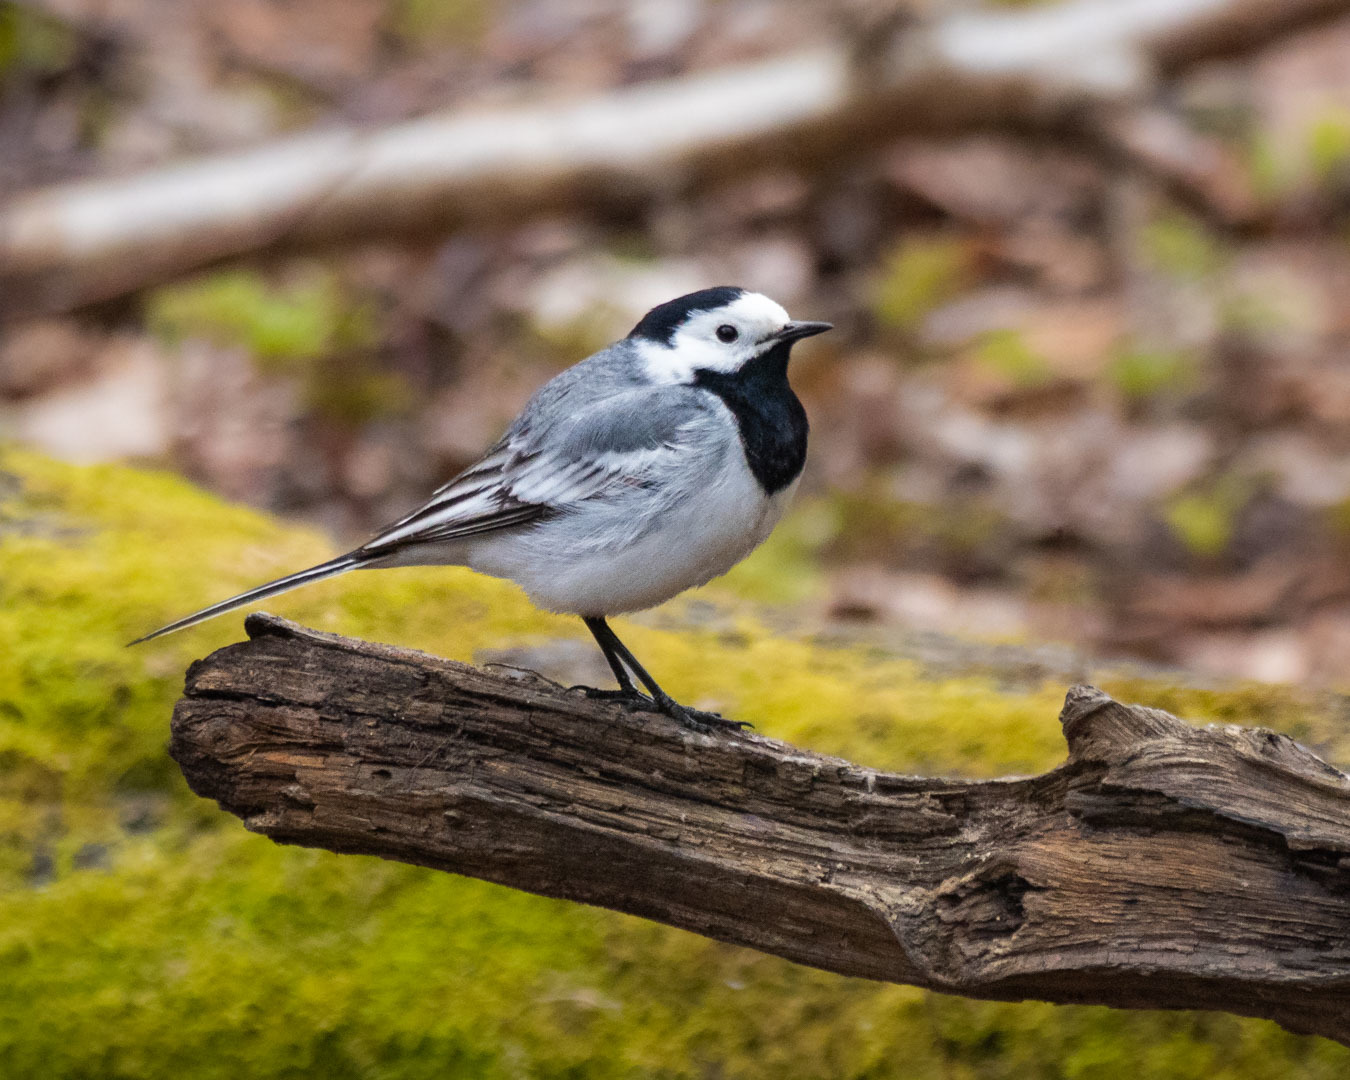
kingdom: Animalia
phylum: Chordata
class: Aves
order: Passeriformes
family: Motacillidae
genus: Motacilla
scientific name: Motacilla alba
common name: White wagtail
